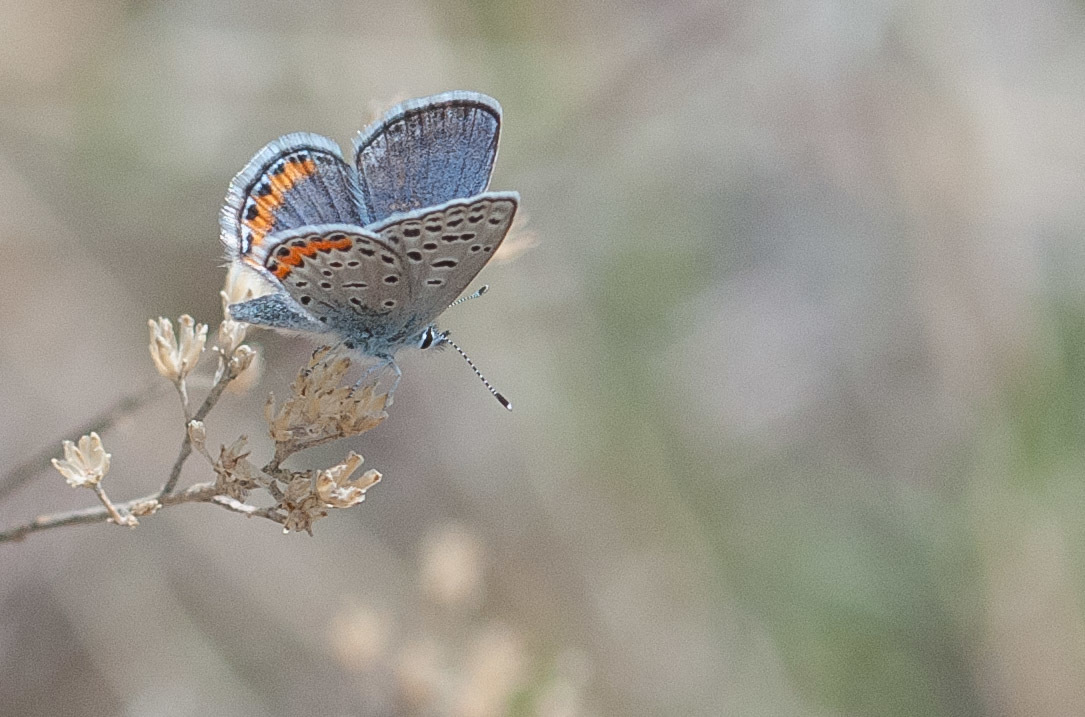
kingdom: Animalia
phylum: Arthropoda
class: Insecta
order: Lepidoptera
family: Lycaenidae
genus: Icaricia
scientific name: Icaricia lupini
